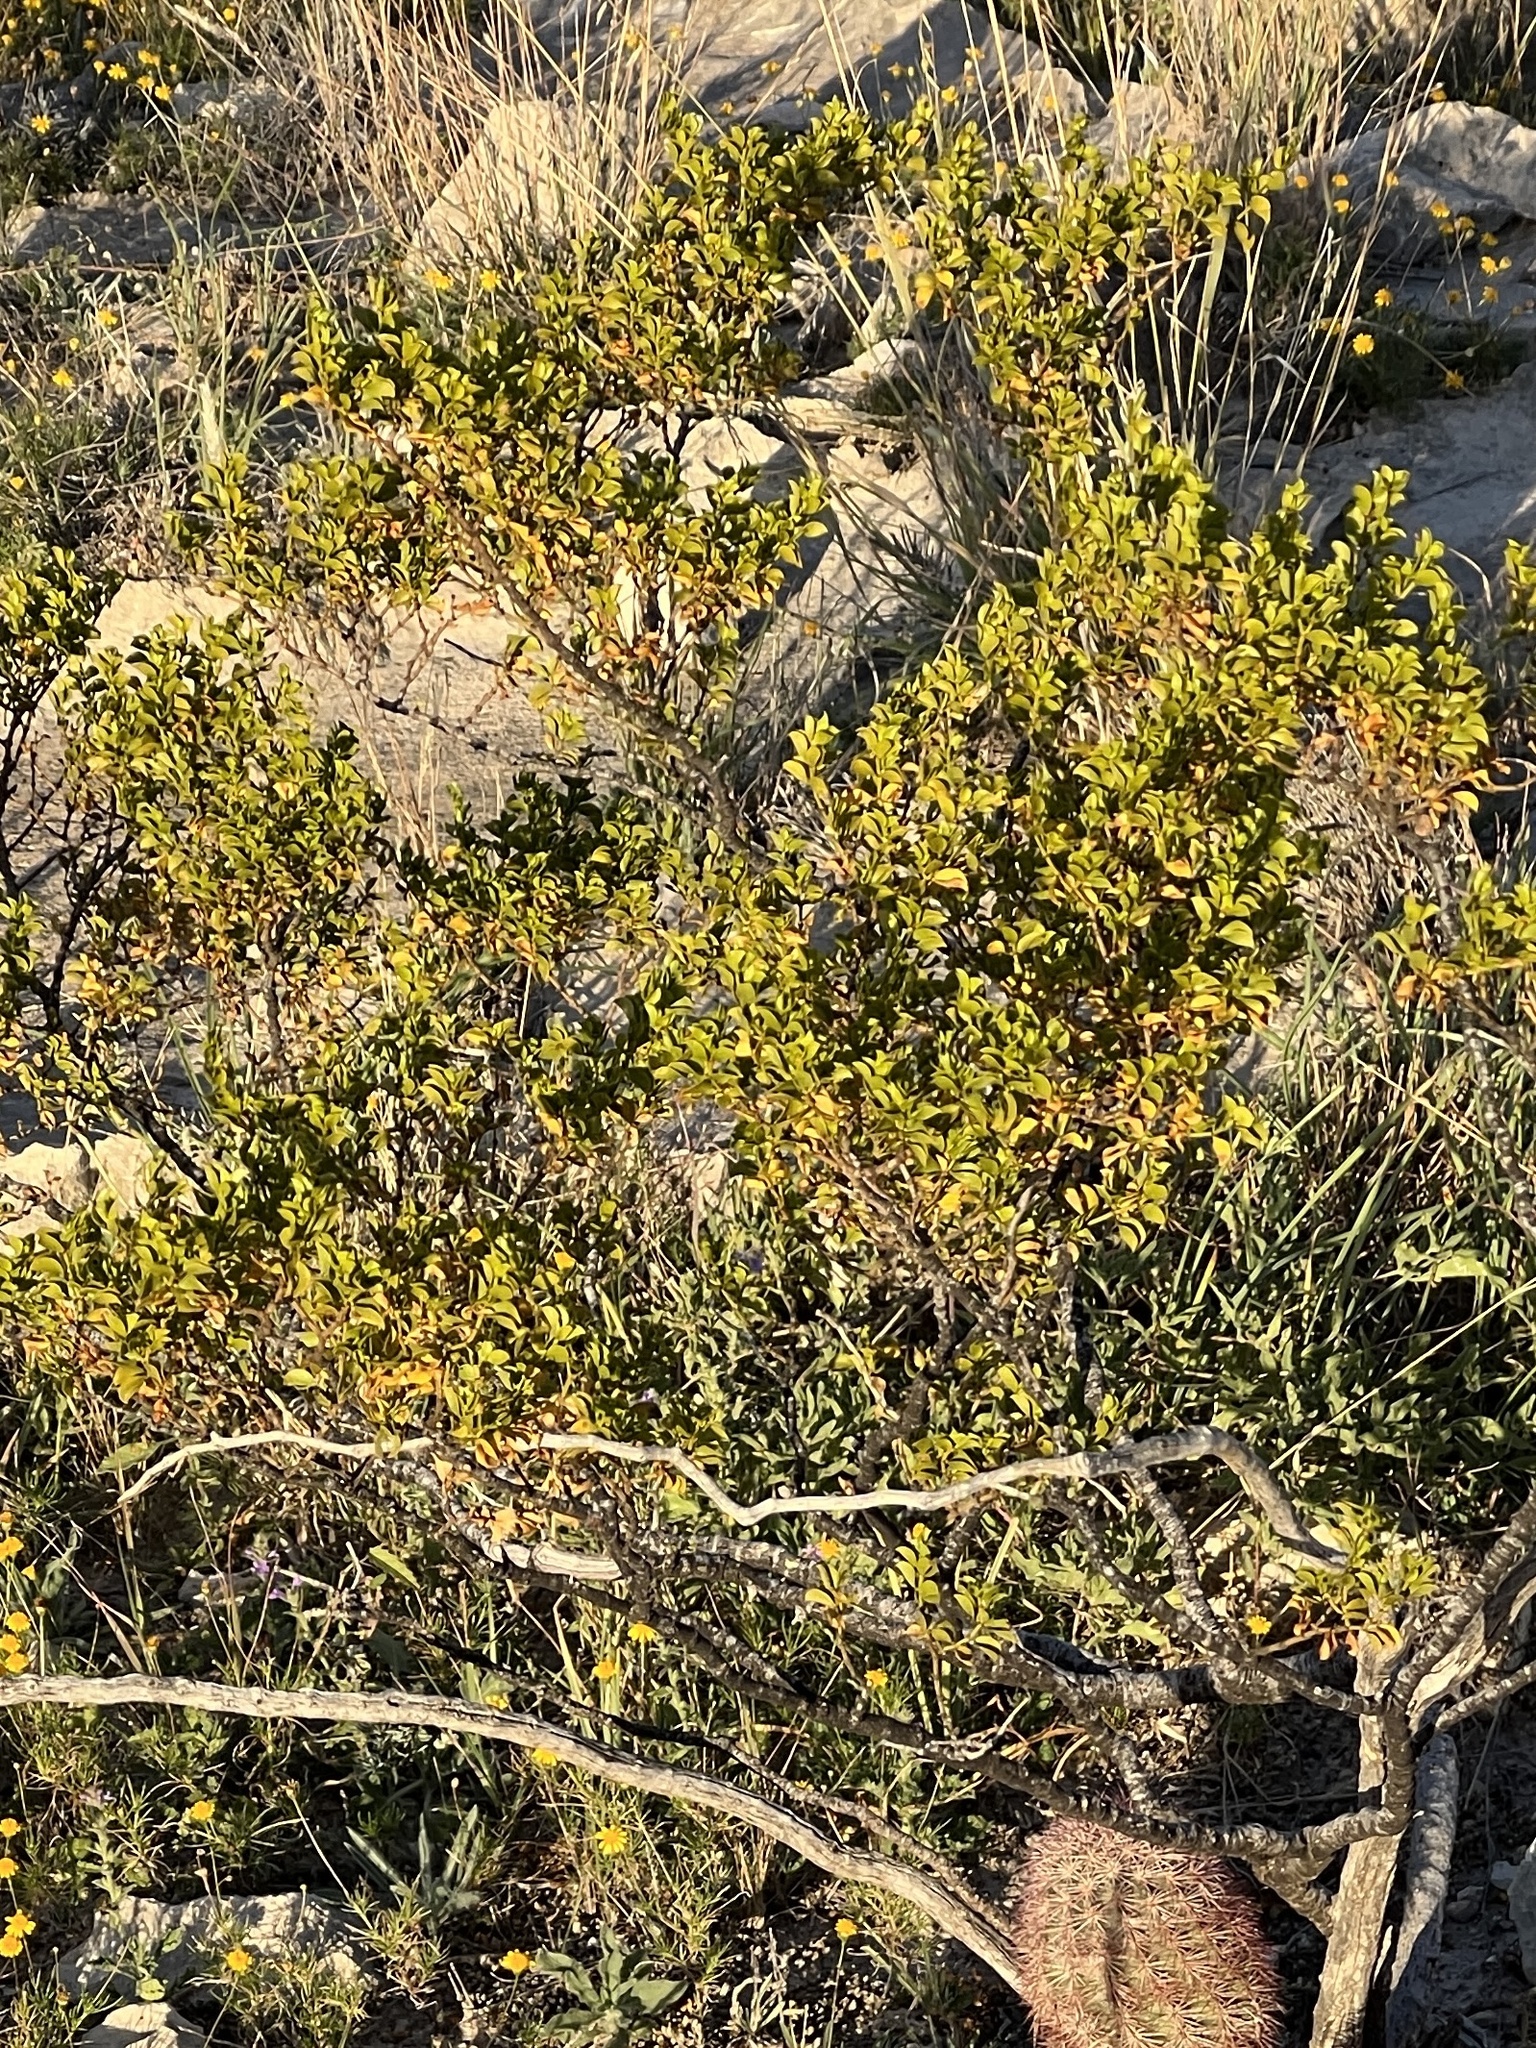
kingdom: Plantae
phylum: Tracheophyta
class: Magnoliopsida
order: Zygophyllales
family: Zygophyllaceae
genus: Larrea
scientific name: Larrea tridentata
